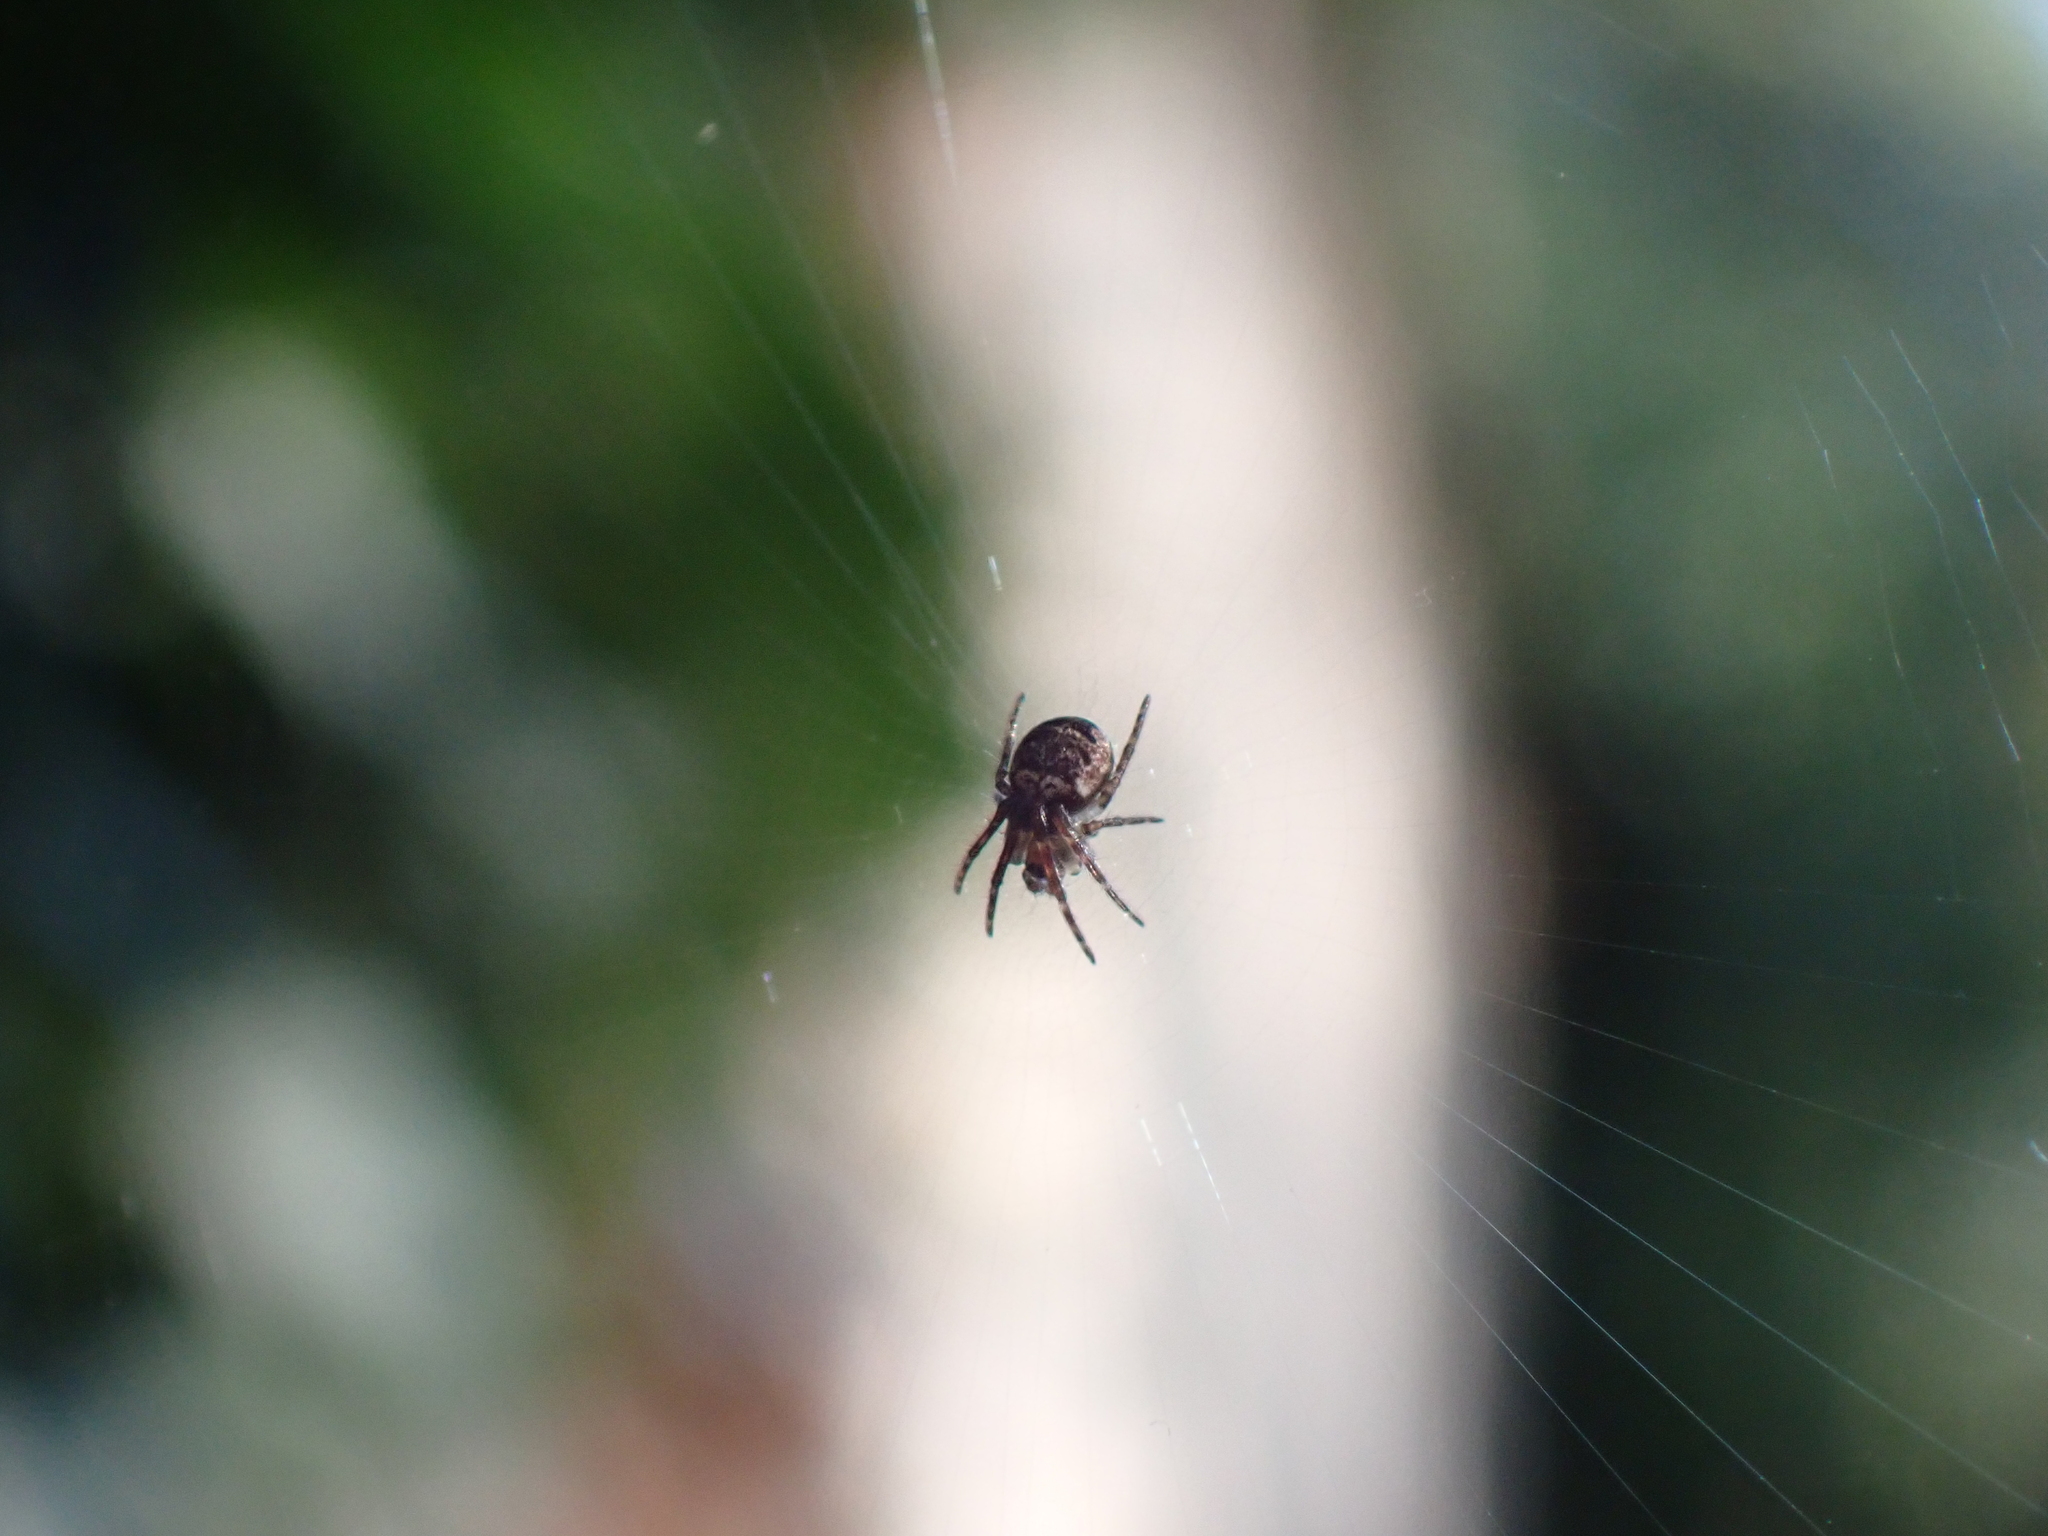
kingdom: Animalia
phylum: Arthropoda
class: Arachnida
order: Araneae
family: Araneidae
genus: Zilla
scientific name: Zilla diodia
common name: Zilla diodia
